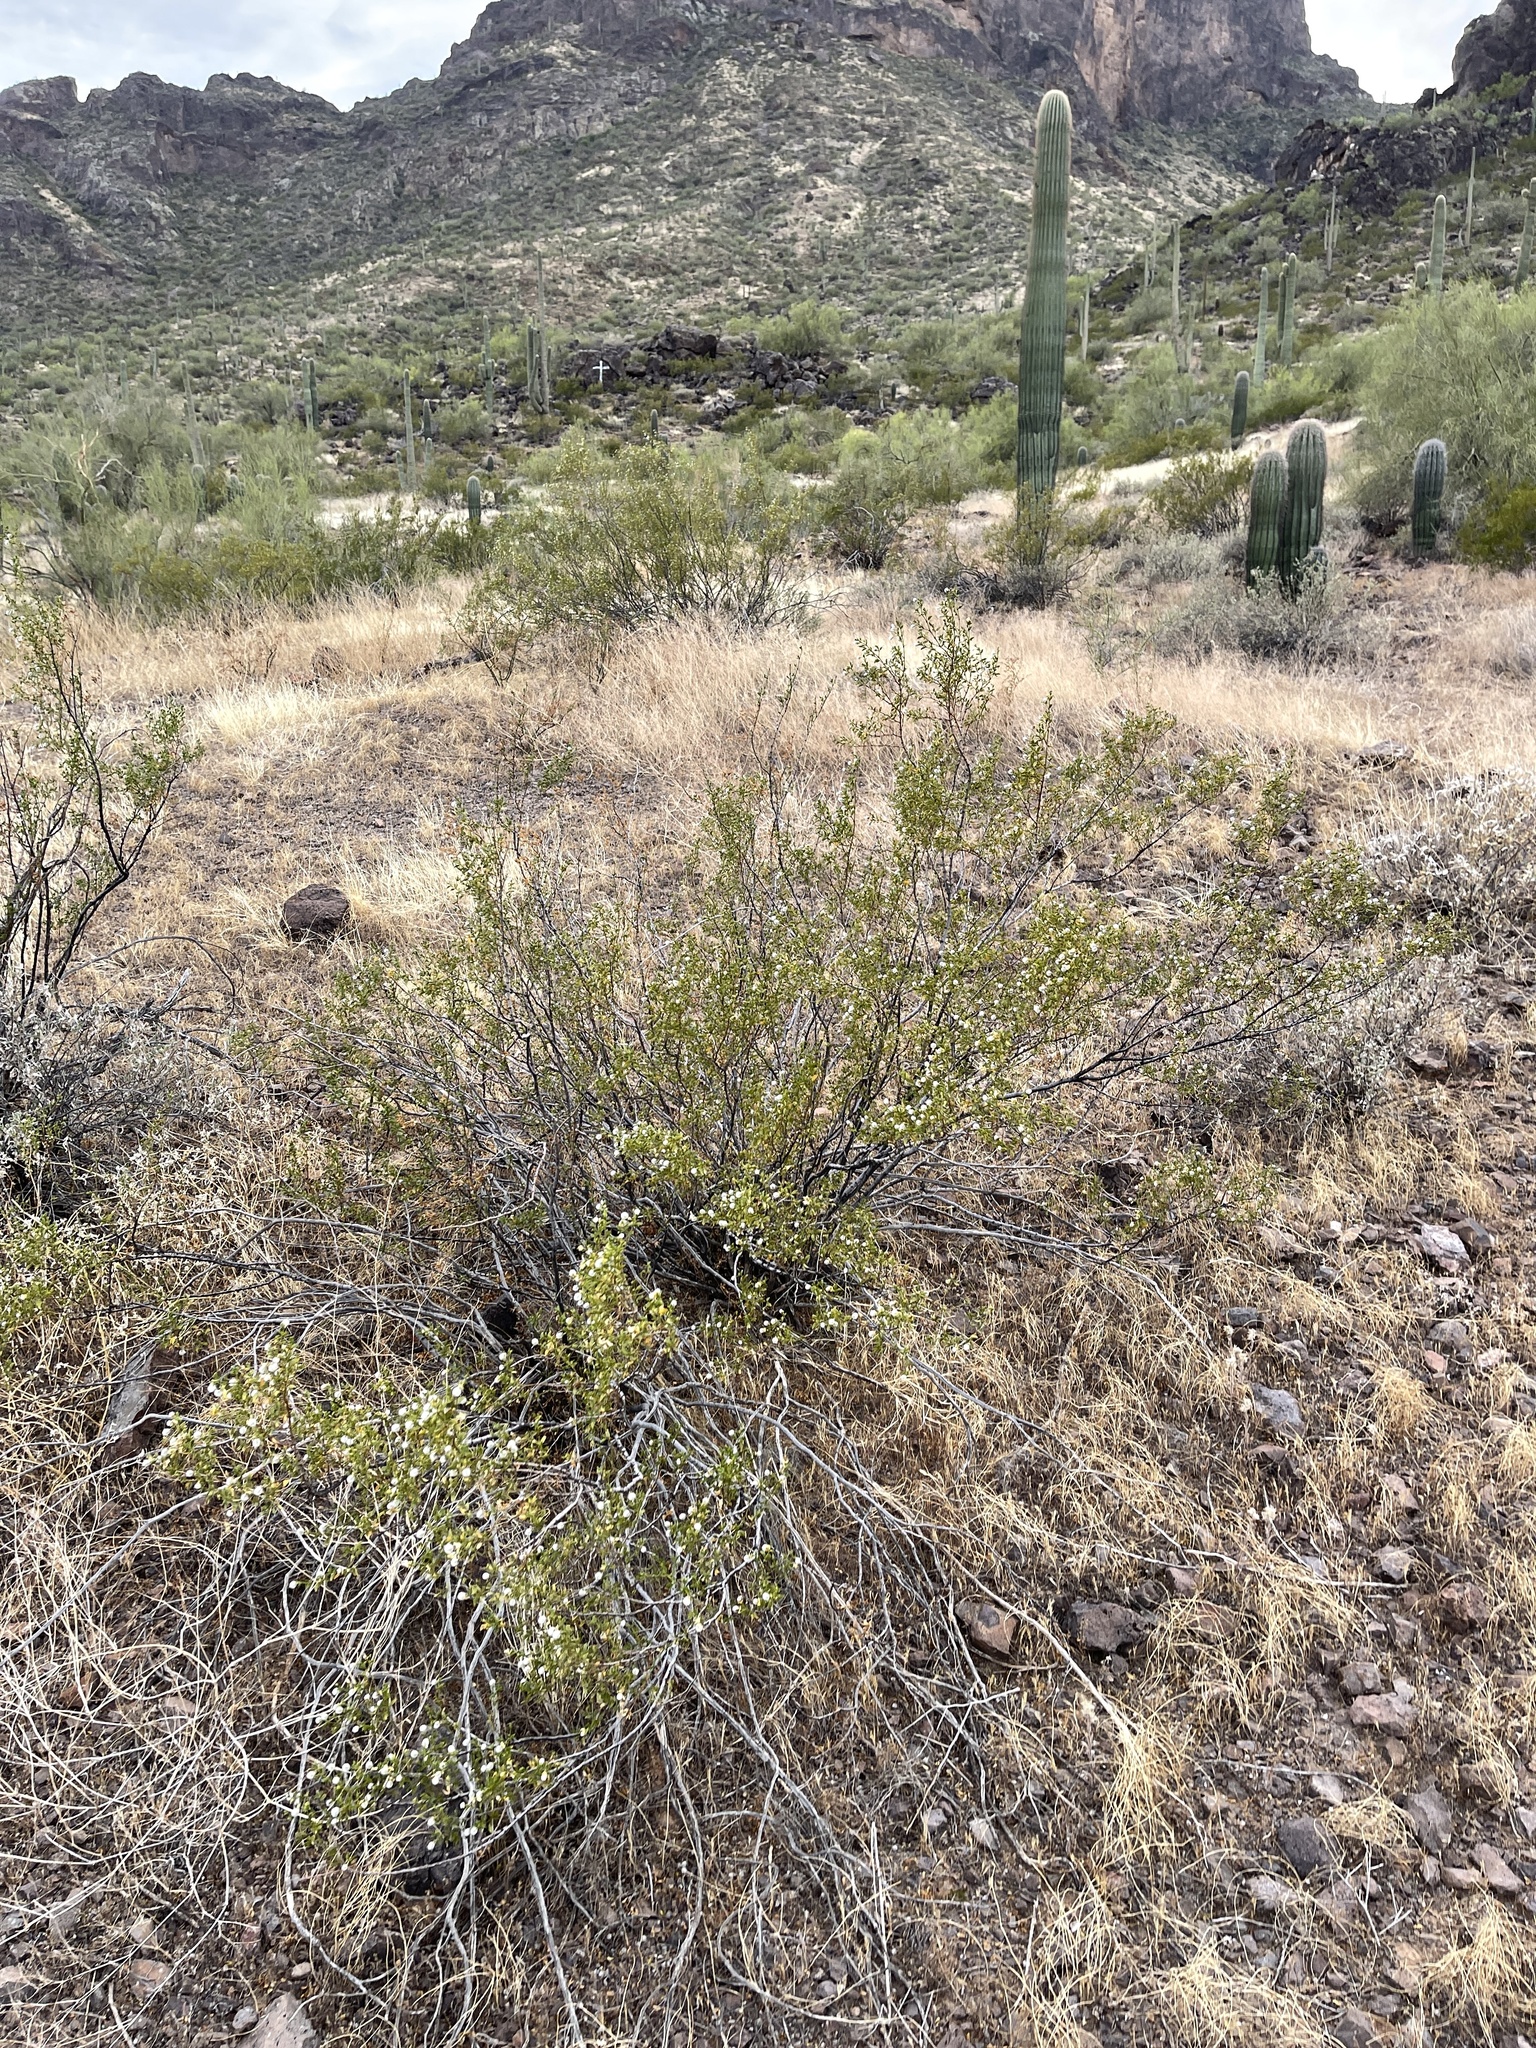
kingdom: Plantae
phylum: Tracheophyta
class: Magnoliopsida
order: Zygophyllales
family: Zygophyllaceae
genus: Larrea
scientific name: Larrea tridentata
